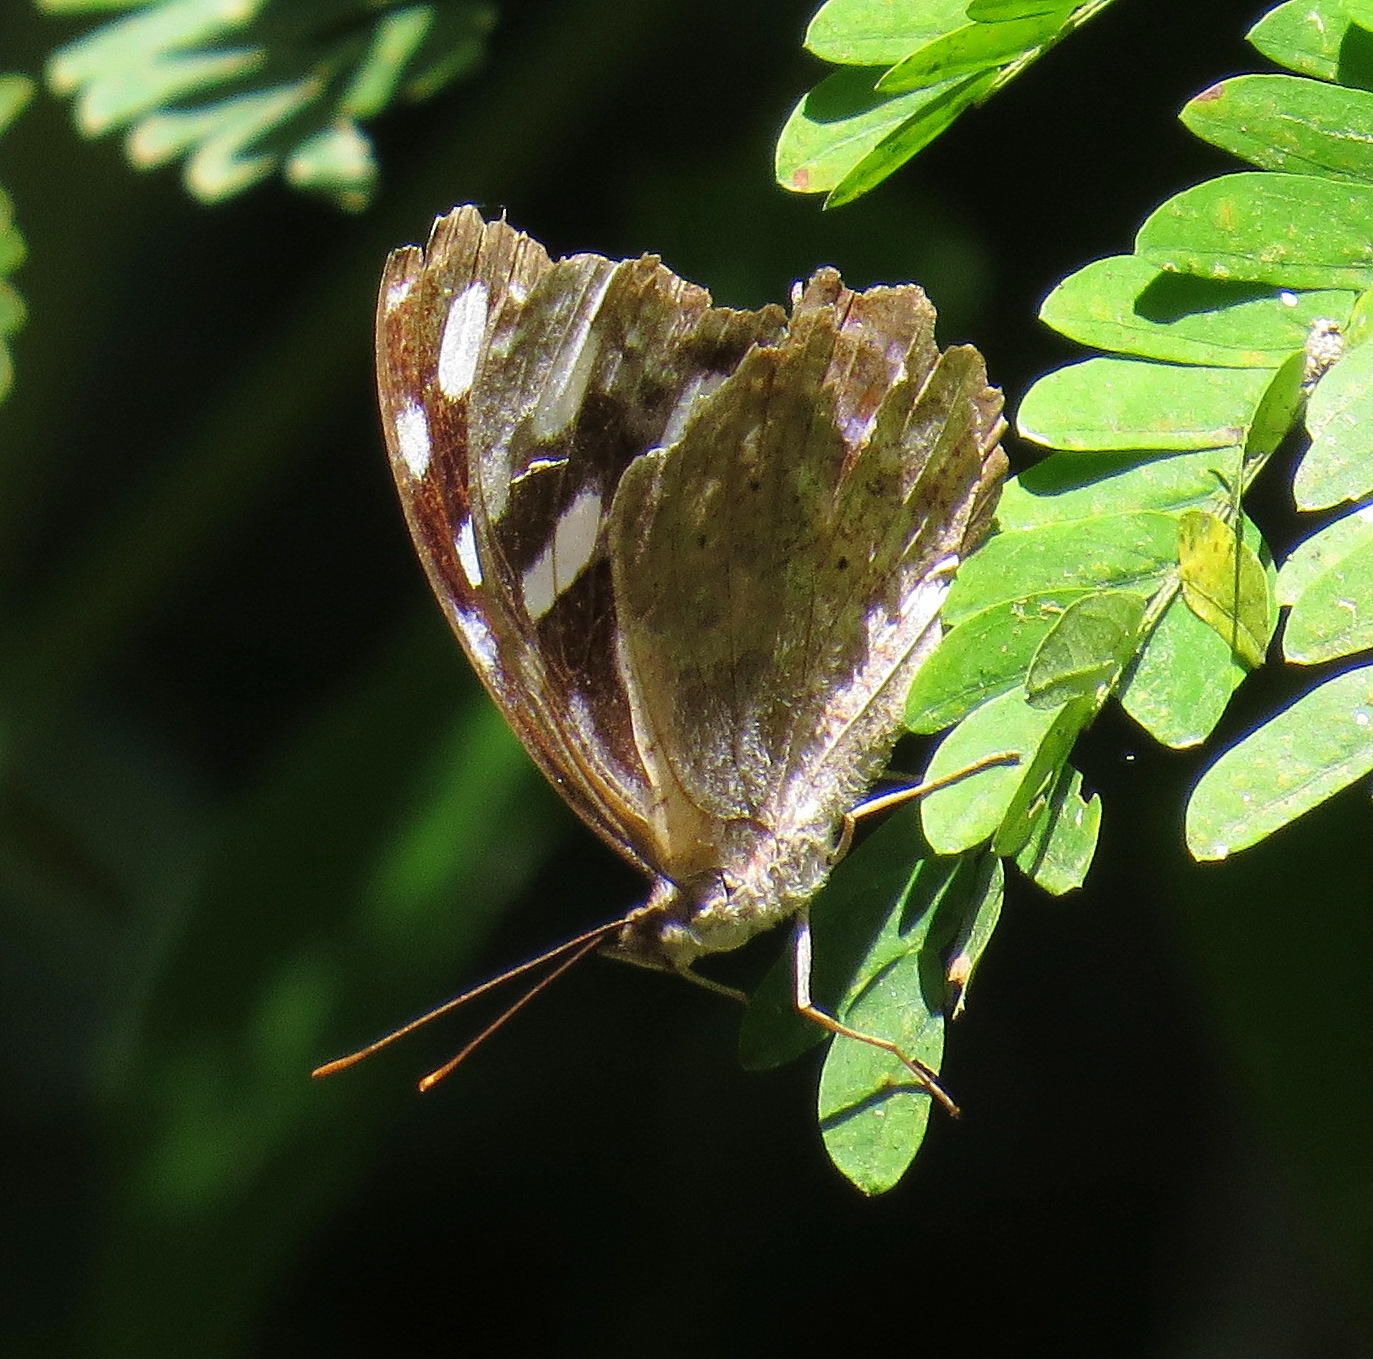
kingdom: Animalia
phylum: Arthropoda
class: Insecta
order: Lepidoptera
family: Nymphalidae
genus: Myscelia
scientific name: Myscelia cyaniris
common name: Whitened bluewing
